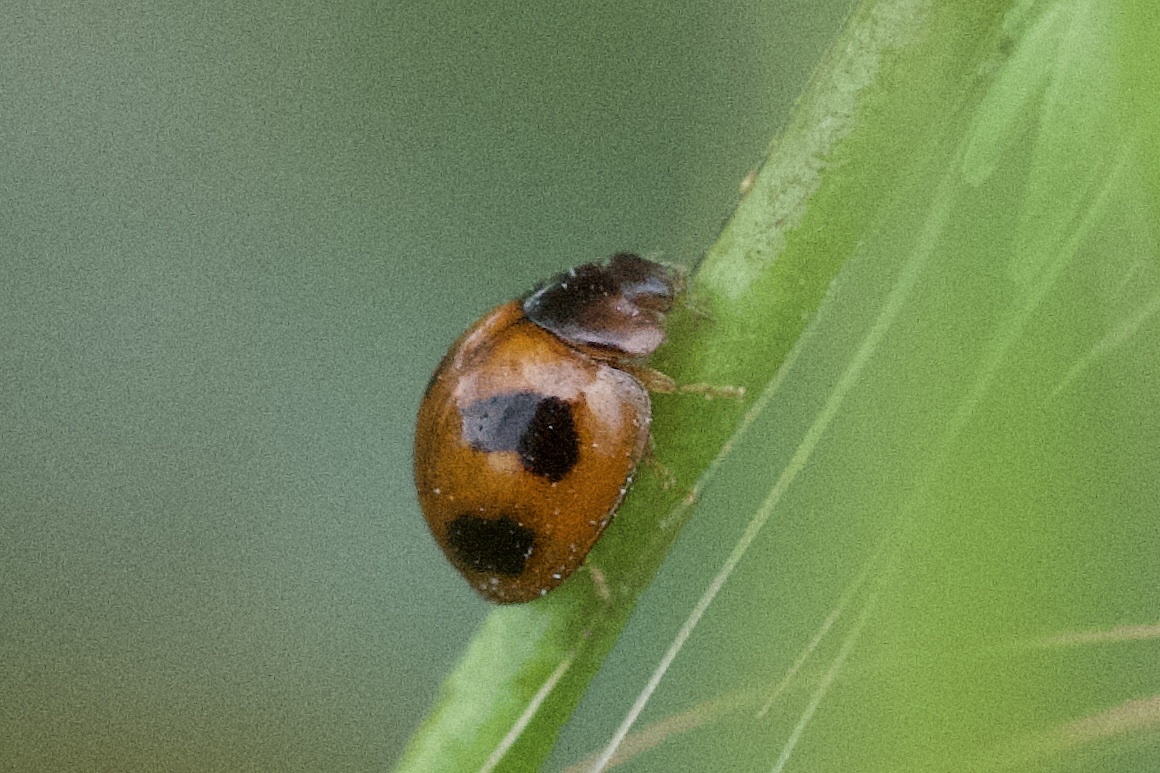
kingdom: Animalia
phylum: Arthropoda
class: Insecta
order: Coleoptera
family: Coccinellidae
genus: Exochomus
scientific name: Exochomus childreni
